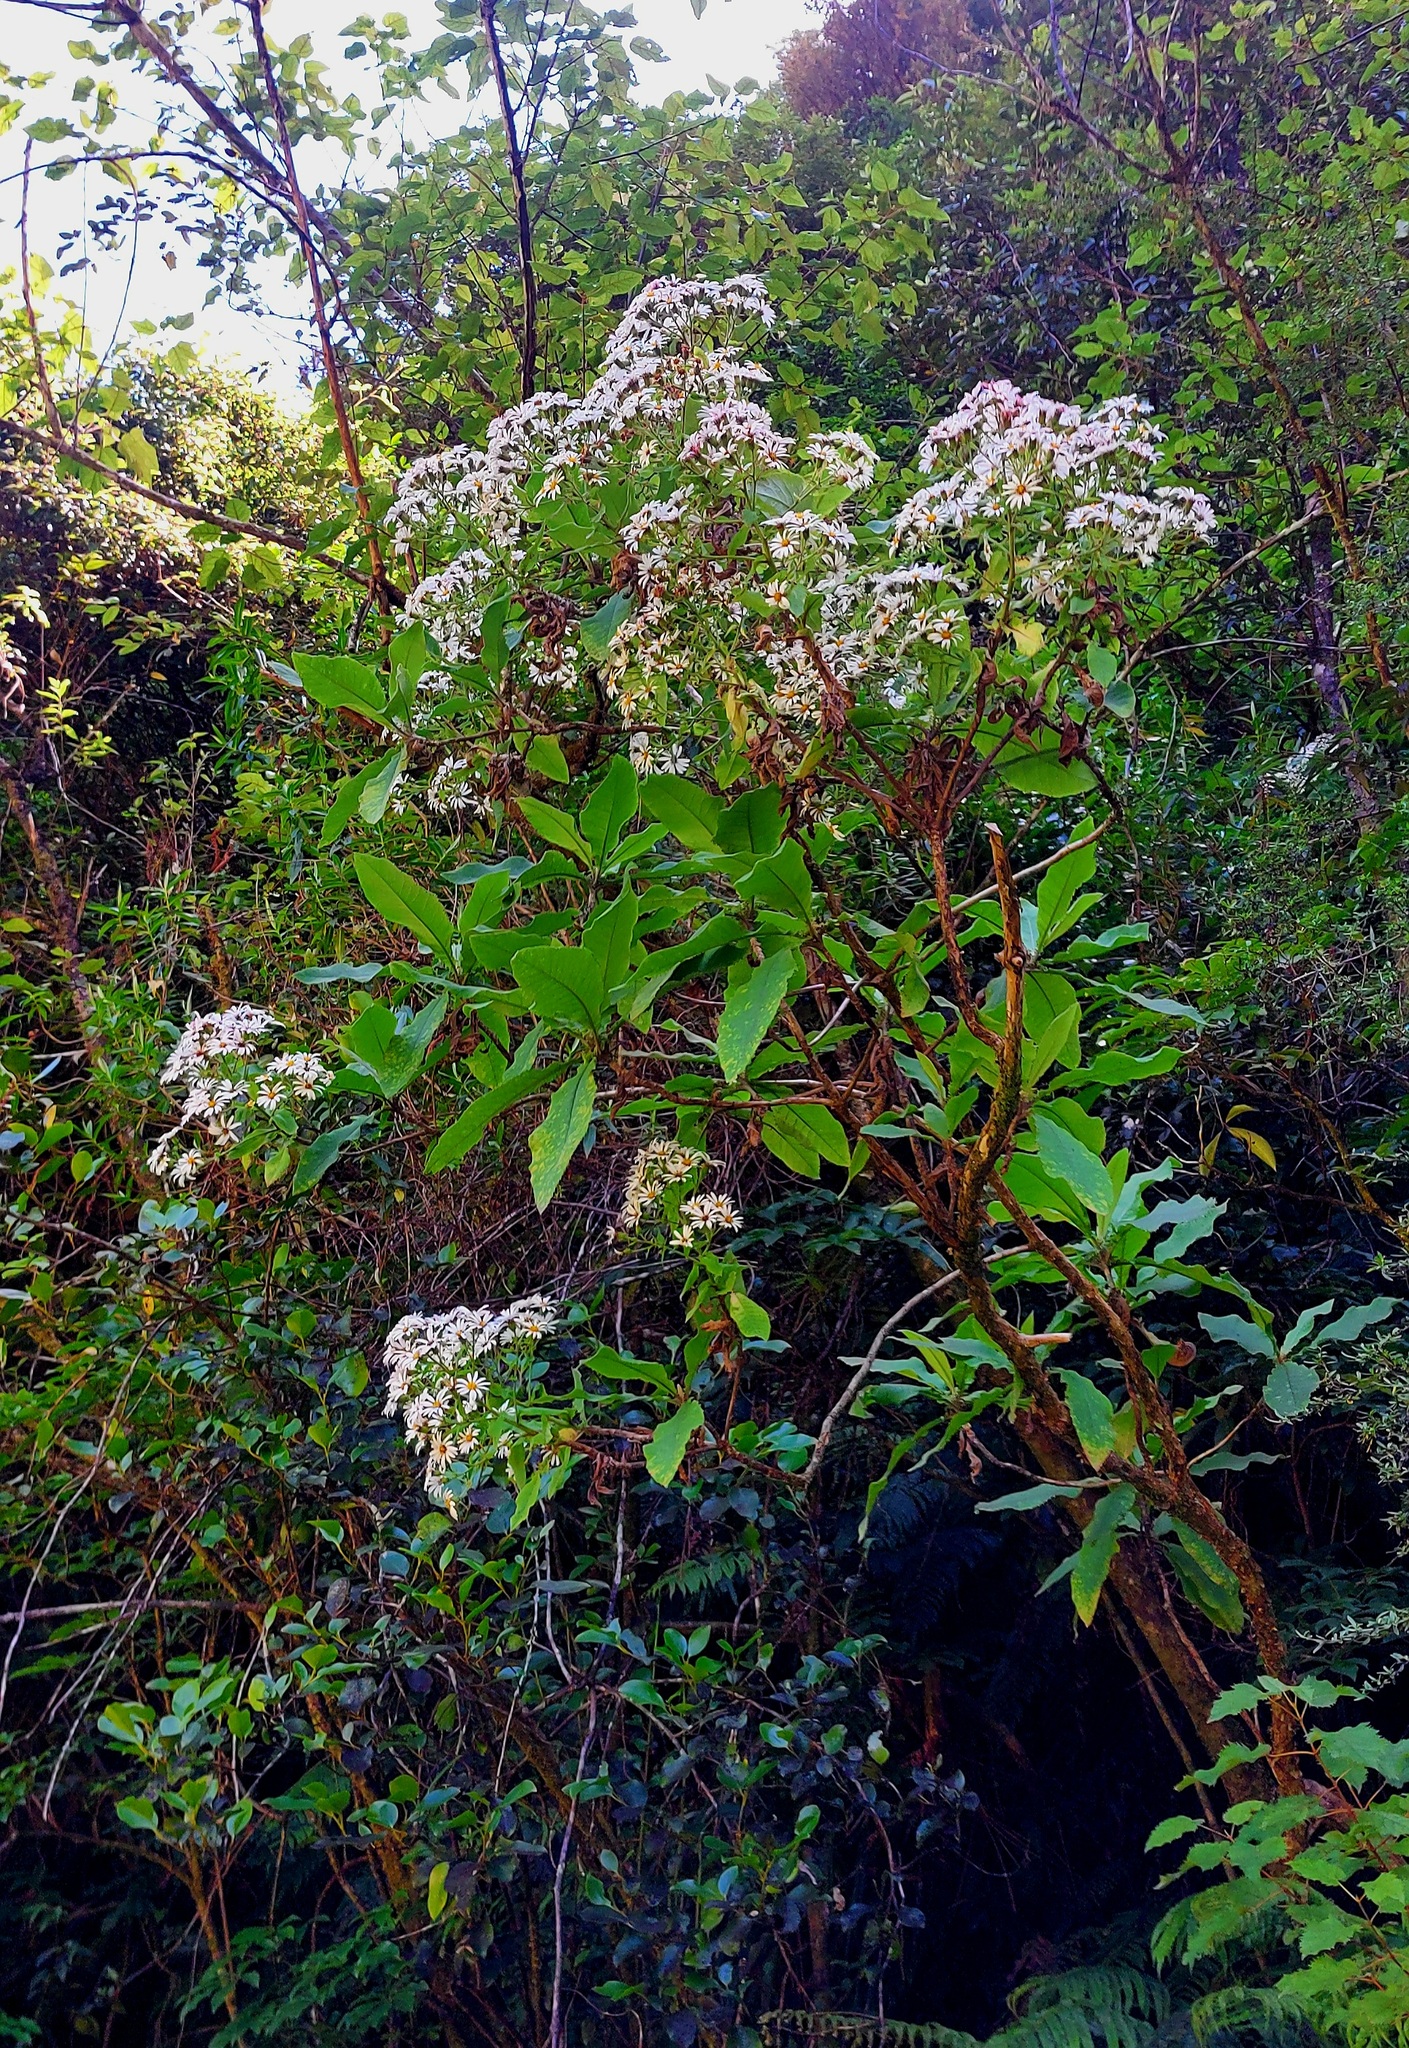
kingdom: Plantae
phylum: Tracheophyta
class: Magnoliopsida
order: Asterales
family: Asteraceae
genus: Brachyglottis
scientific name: Brachyglottis hectorii
